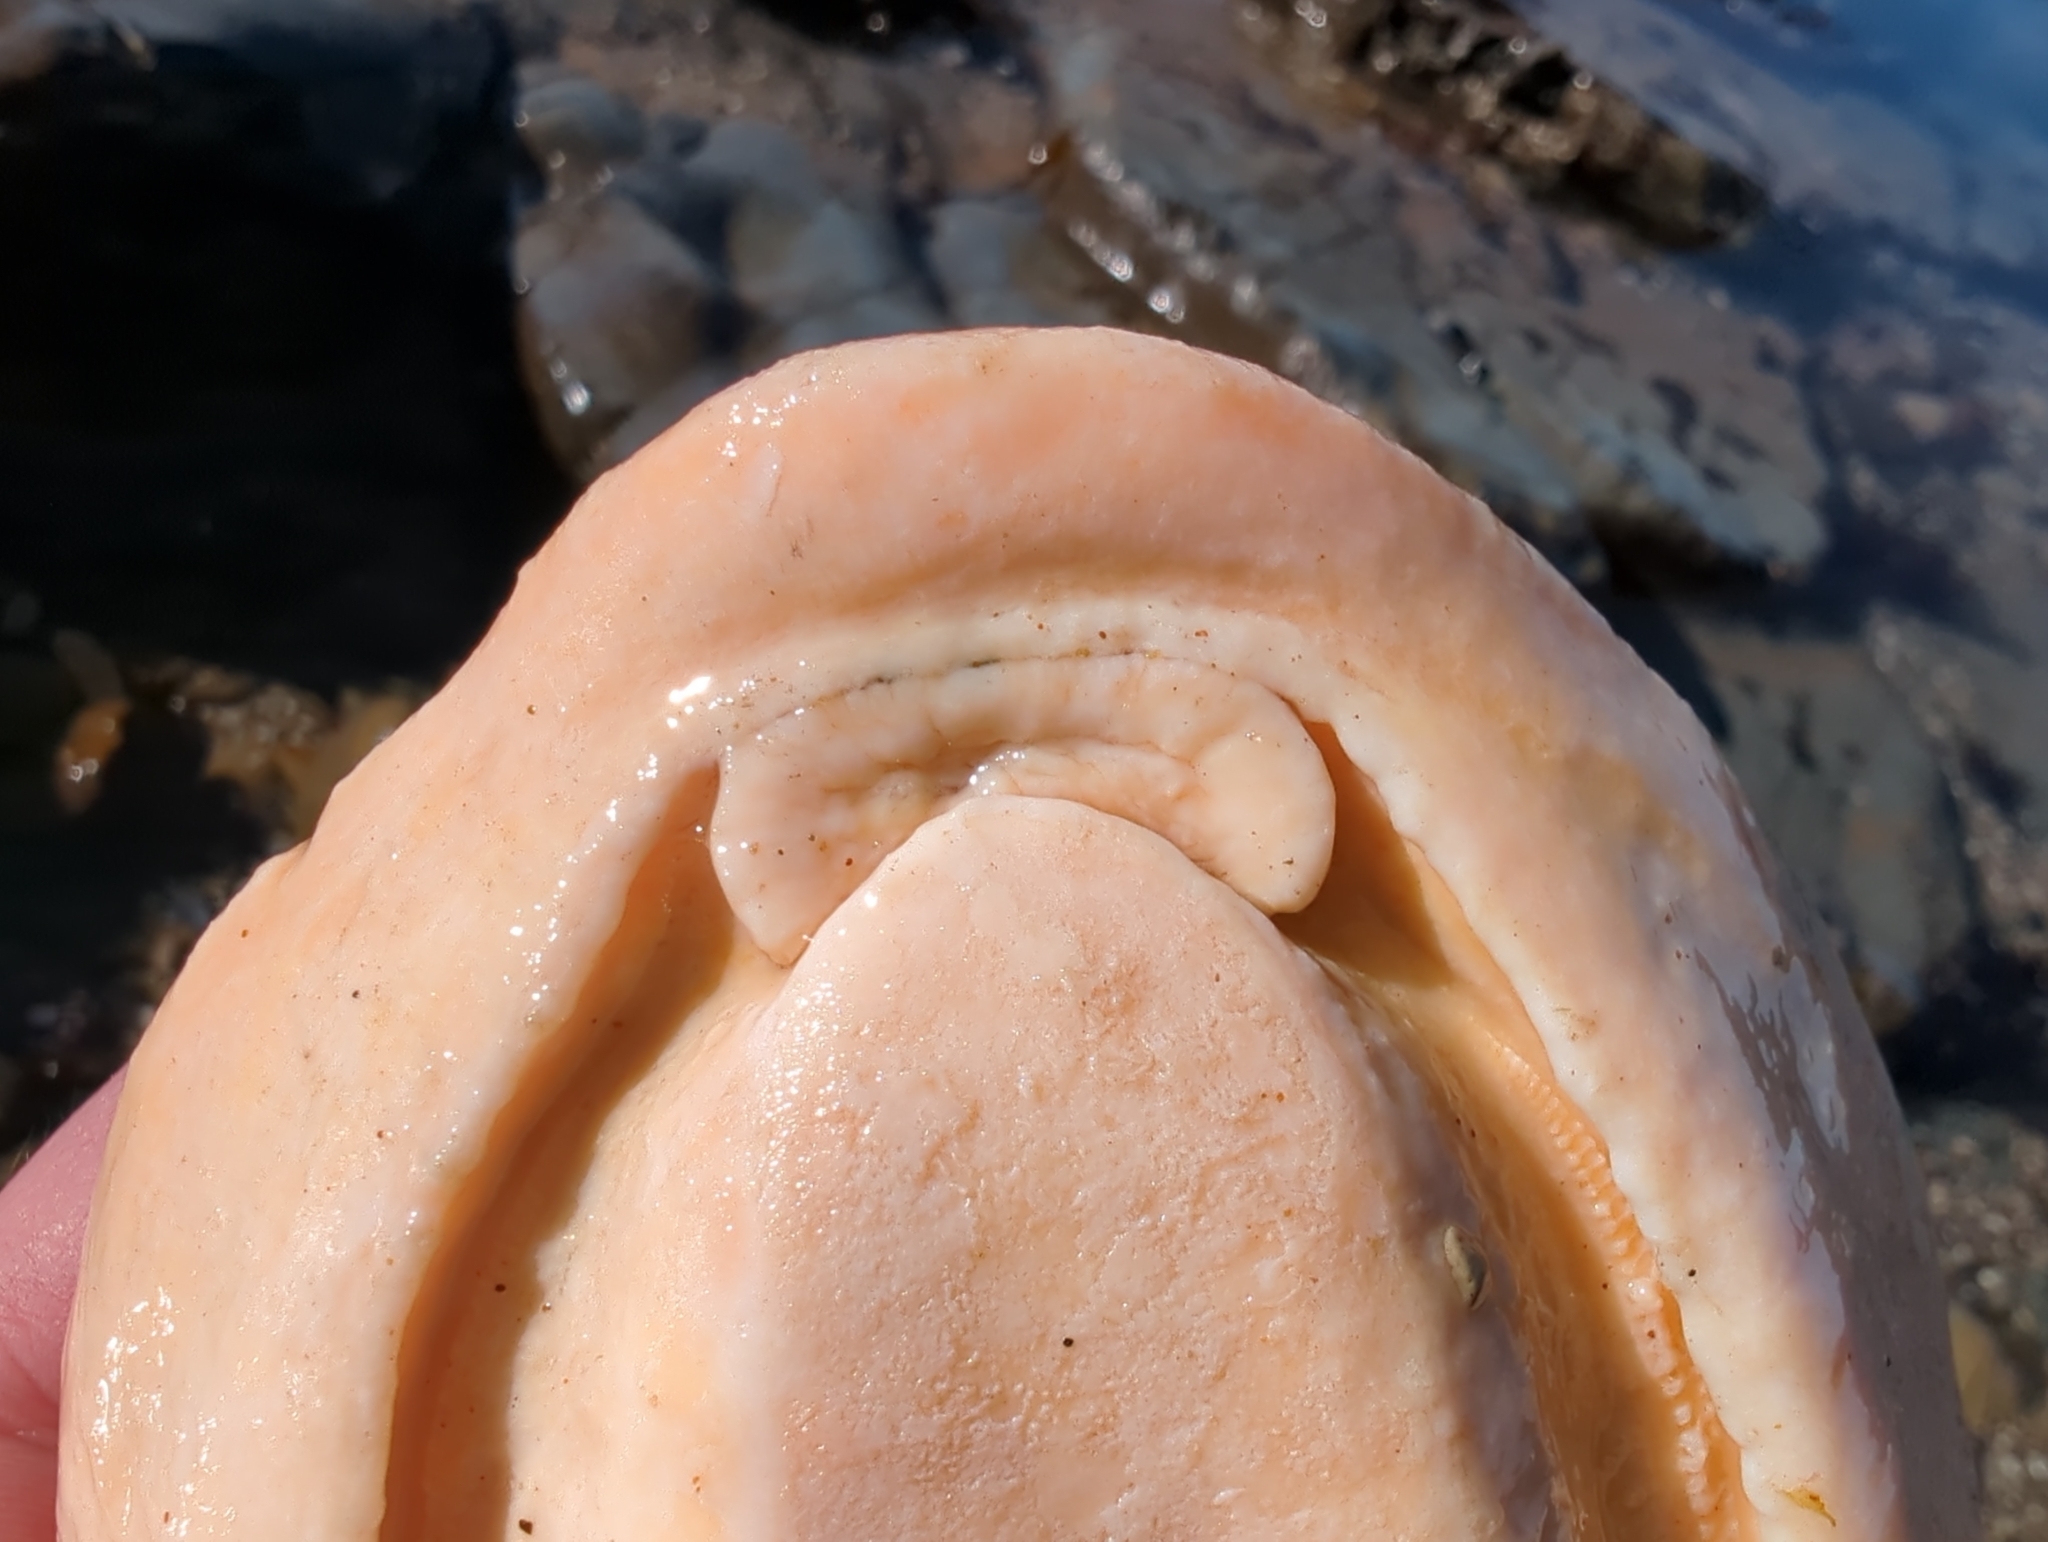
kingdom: Animalia
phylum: Mollusca
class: Polyplacophora
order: Chitonida
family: Acanthochitonidae
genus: Cryptochiton
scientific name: Cryptochiton stelleri
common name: Giant pacific chiton
